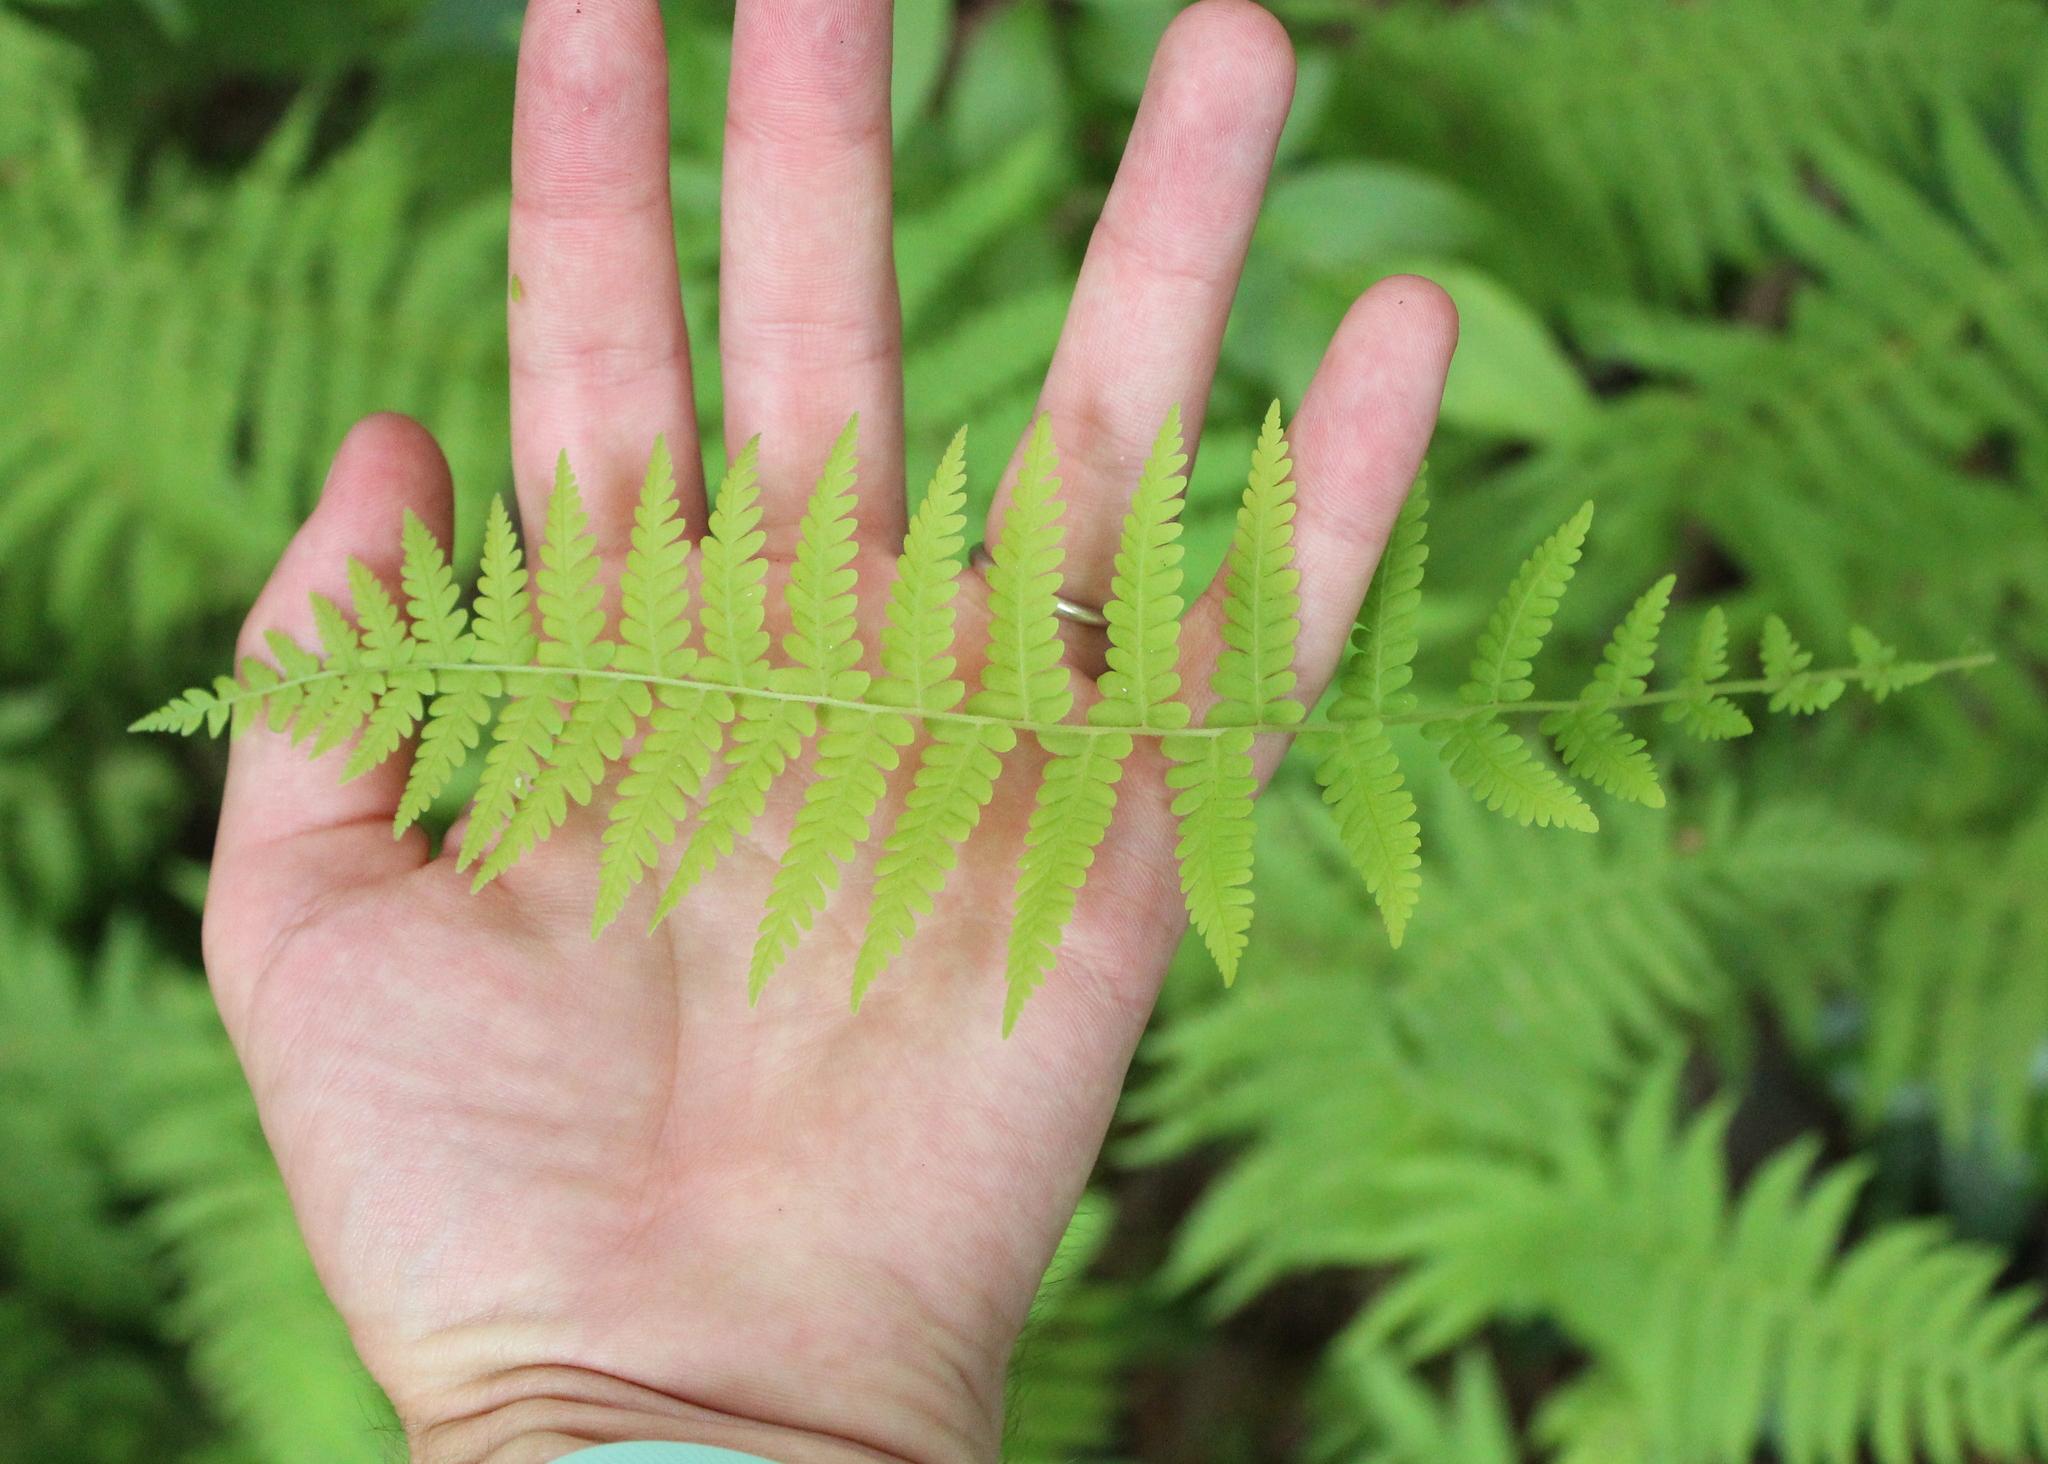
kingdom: Plantae
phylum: Tracheophyta
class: Polypodiopsida
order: Polypodiales
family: Thelypteridaceae
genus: Amauropelta
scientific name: Amauropelta noveboracensis
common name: New york fern
